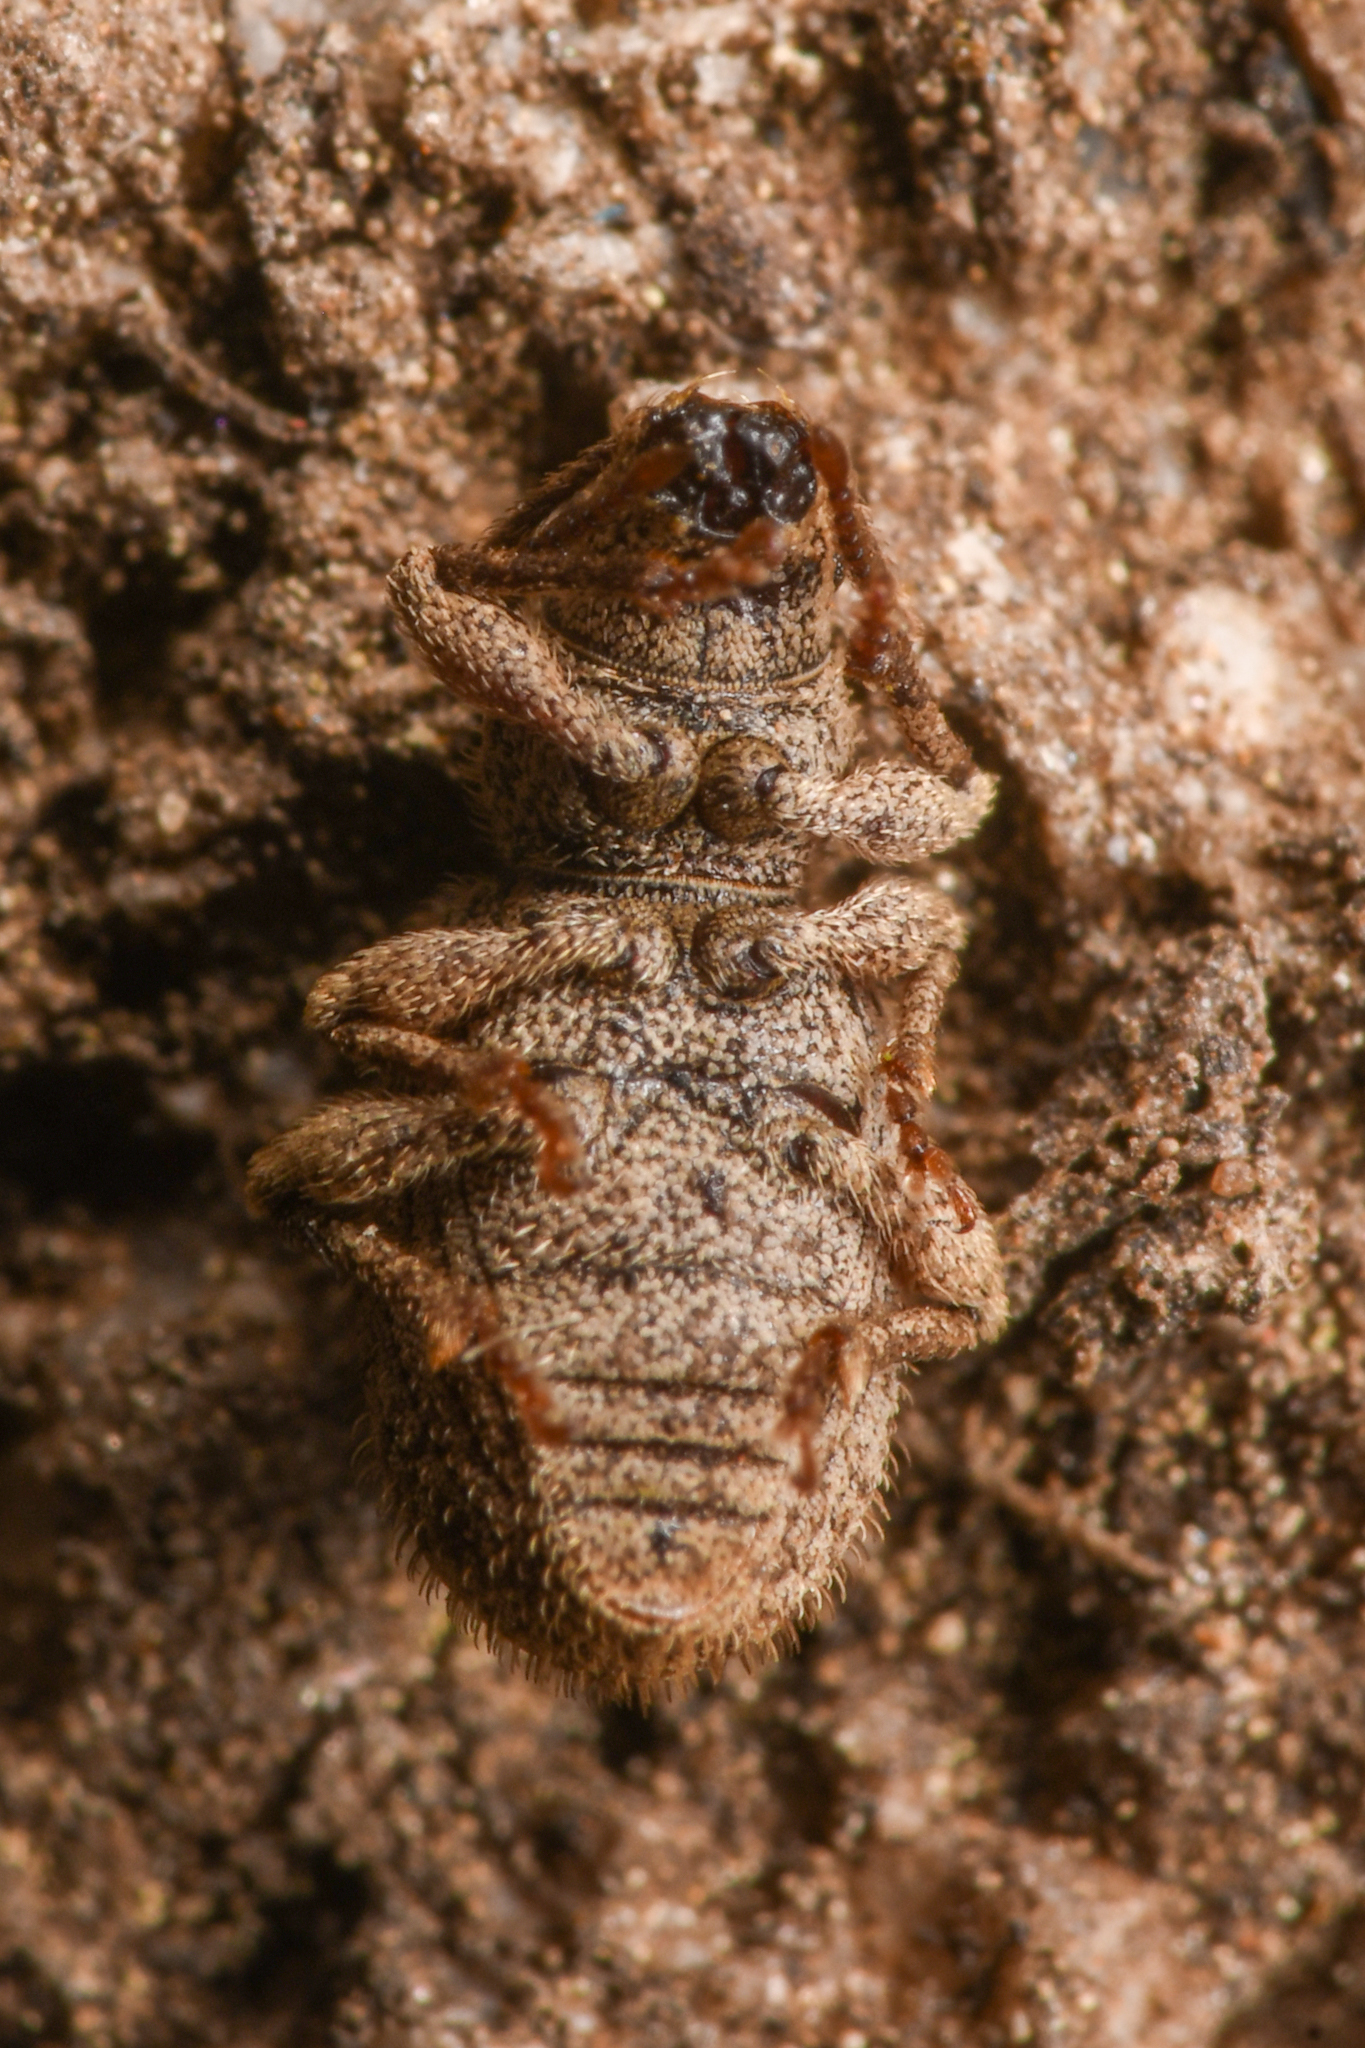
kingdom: Animalia
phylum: Arthropoda
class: Insecta
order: Coleoptera
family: Curculionidae
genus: Eucyllus
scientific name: Eucyllus vagans
